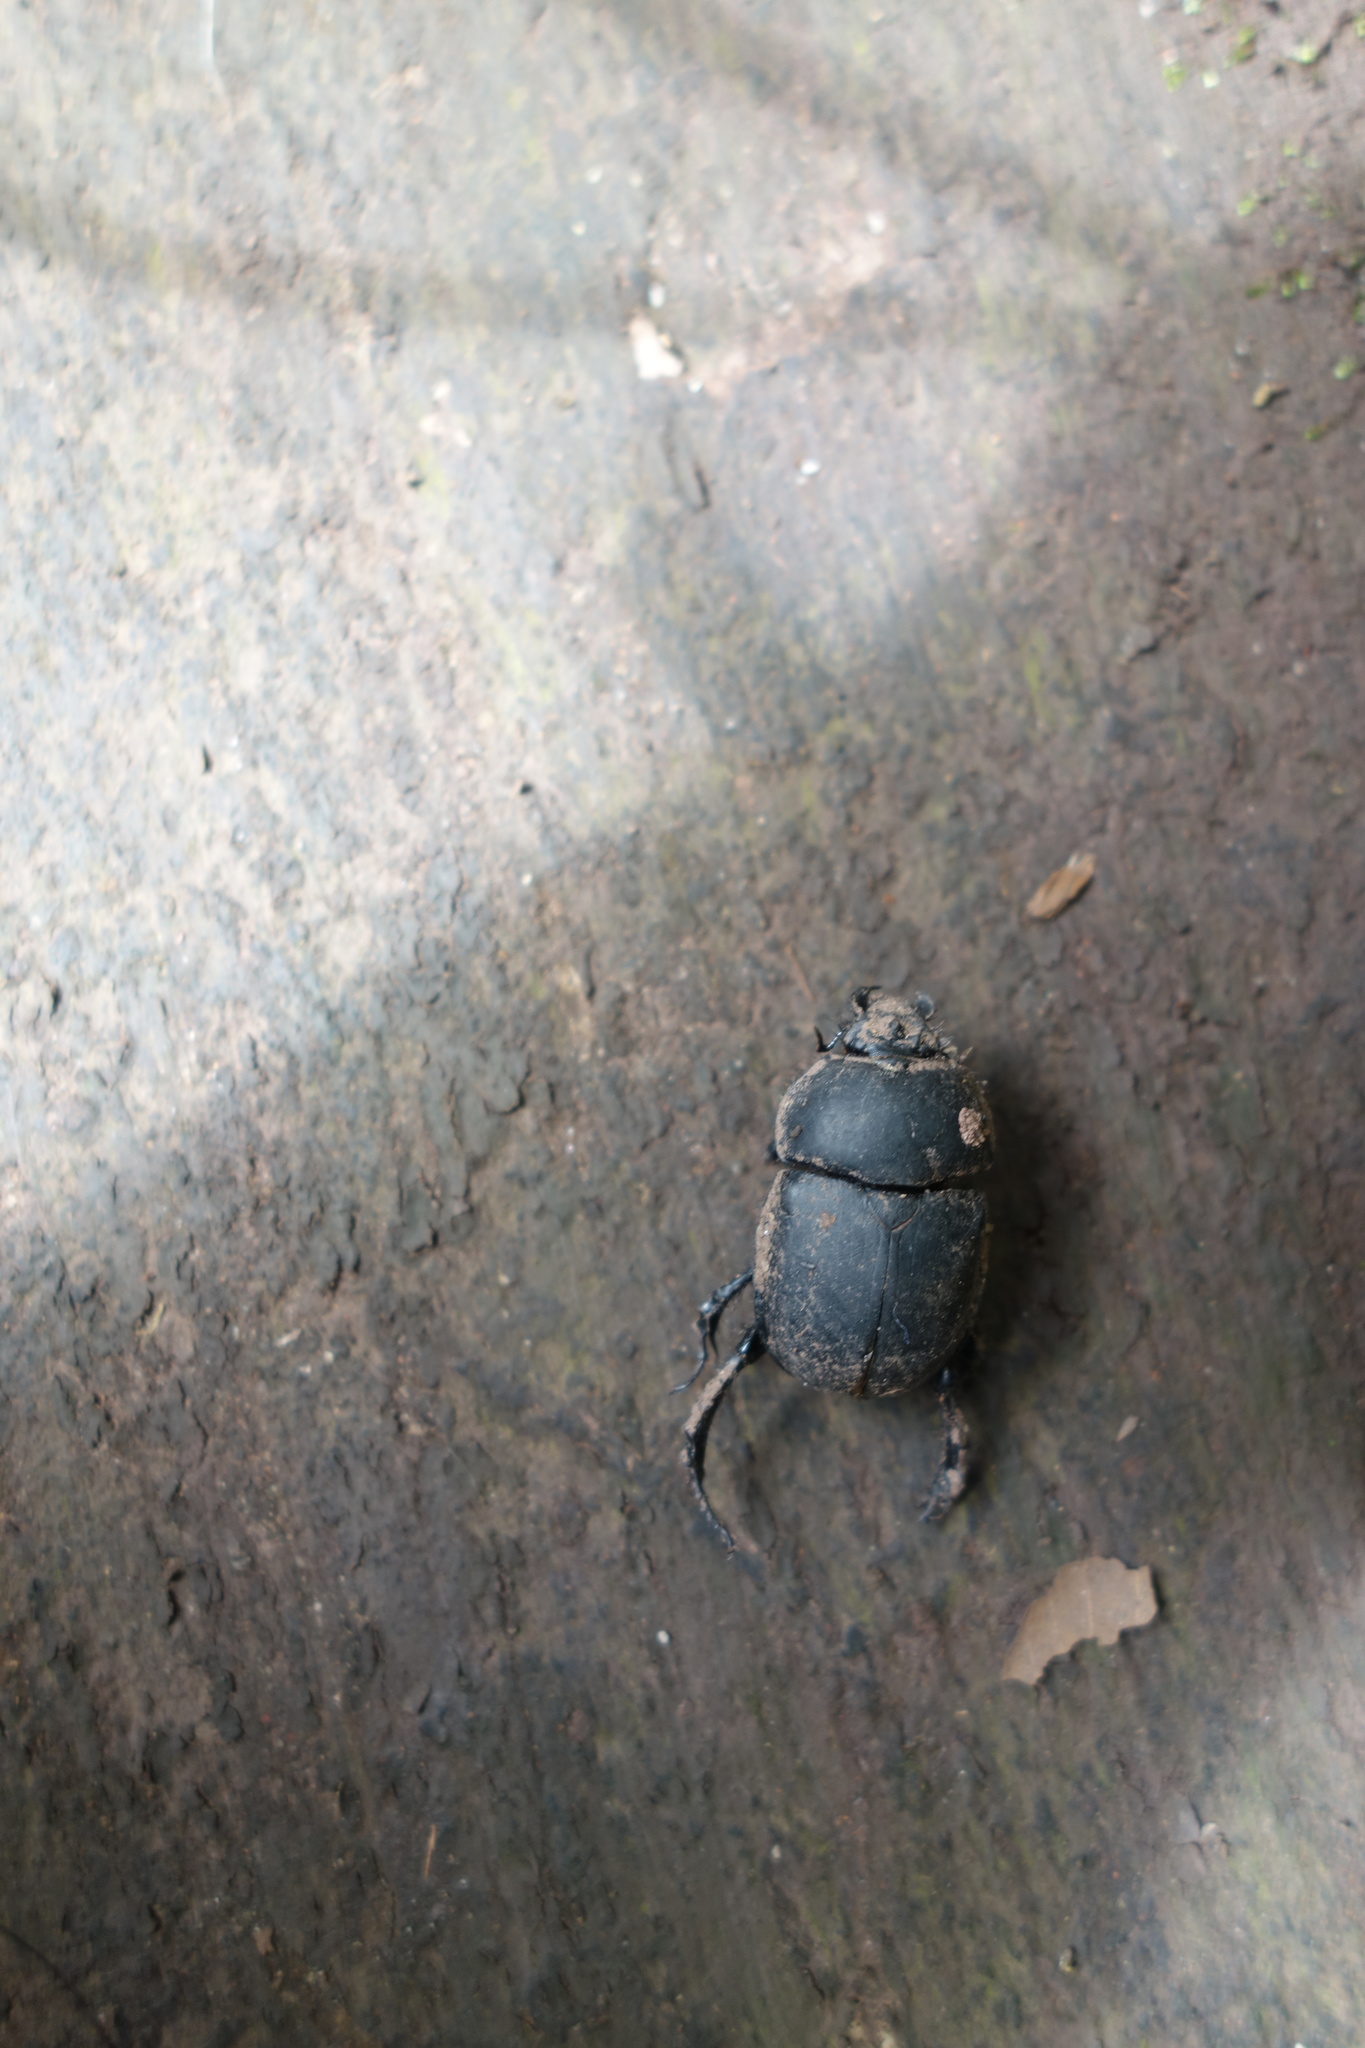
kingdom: Animalia
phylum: Arthropoda
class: Insecta
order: Coleoptera
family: Geotrupidae
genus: Phelotrupes
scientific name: Phelotrupes substriatellus
